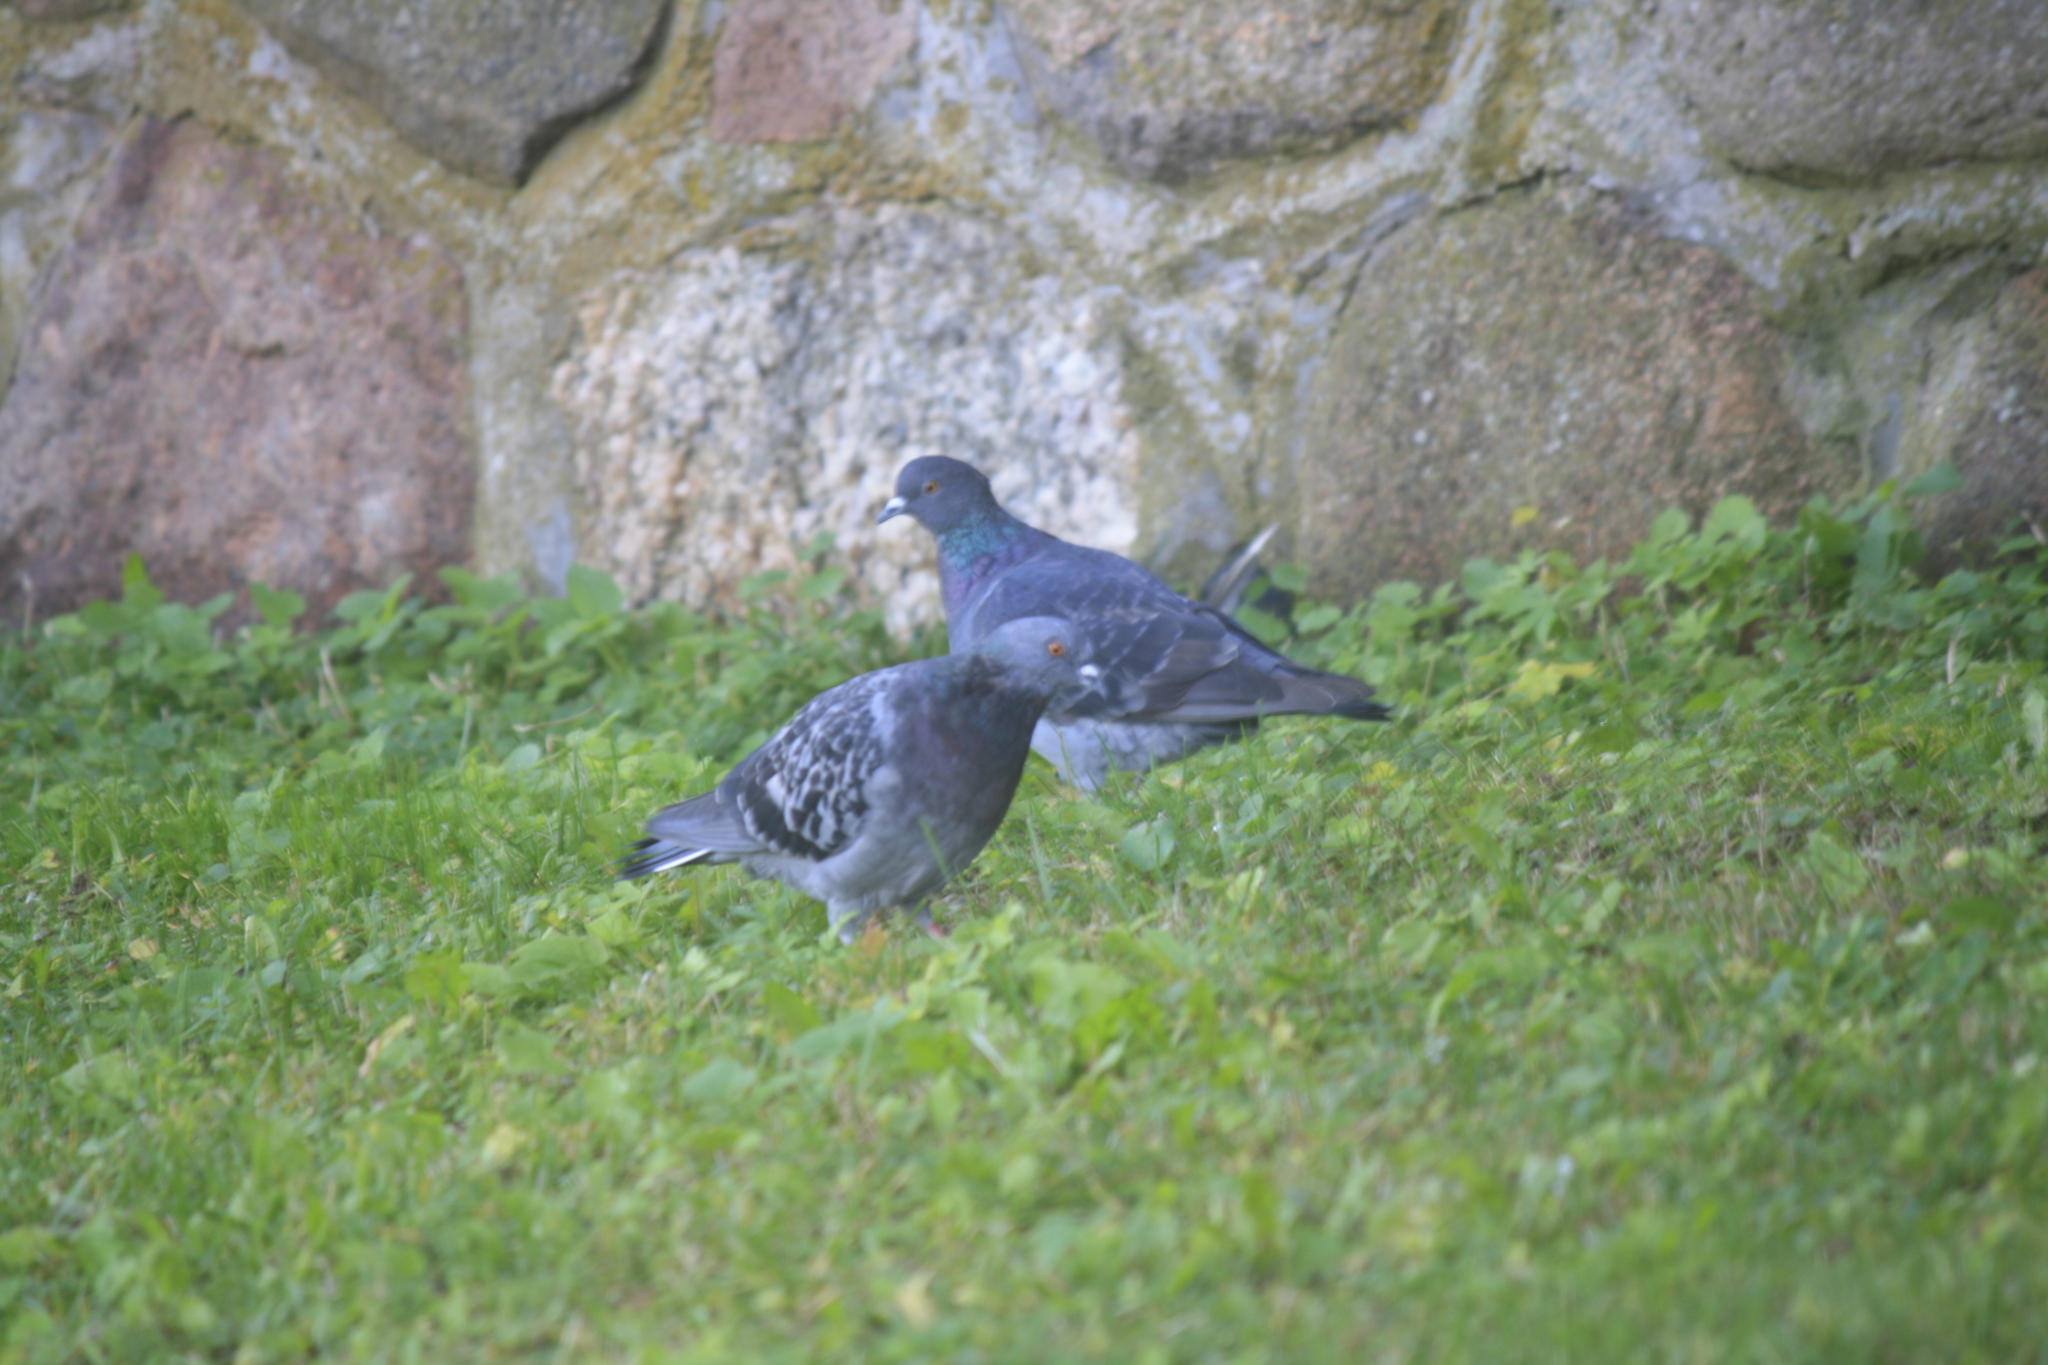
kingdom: Animalia
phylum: Chordata
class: Aves
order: Columbiformes
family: Columbidae
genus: Columba
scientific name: Columba livia
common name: Rock pigeon
